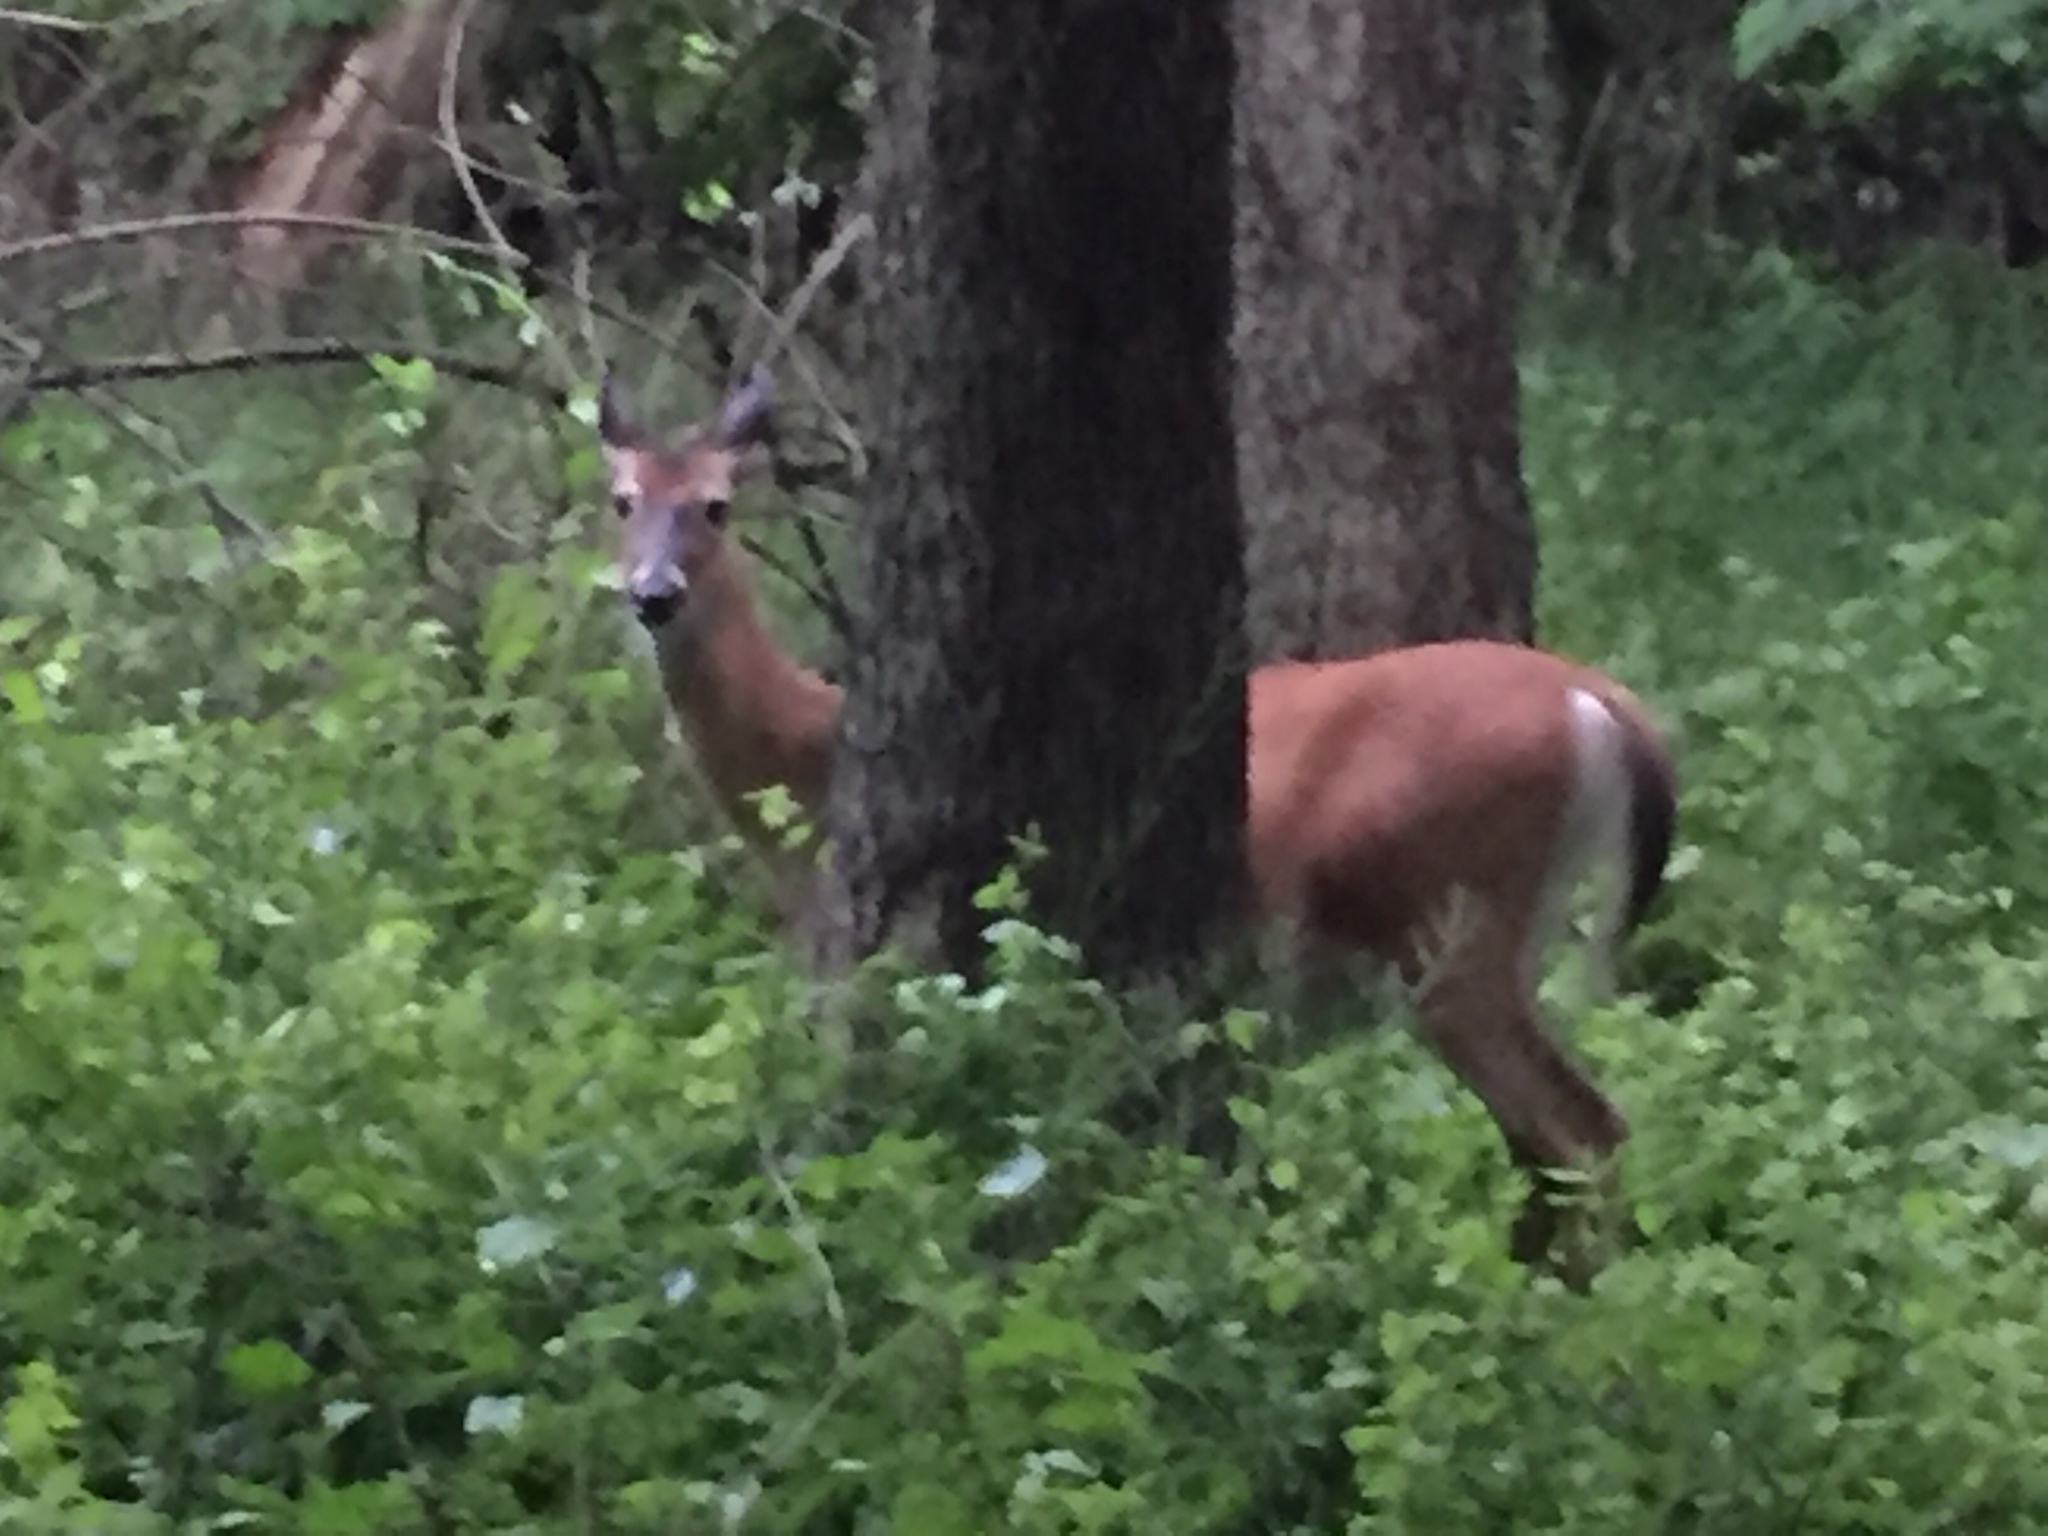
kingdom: Animalia
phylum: Chordata
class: Mammalia
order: Artiodactyla
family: Cervidae
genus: Odocoileus
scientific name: Odocoileus virginianus
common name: White-tailed deer
